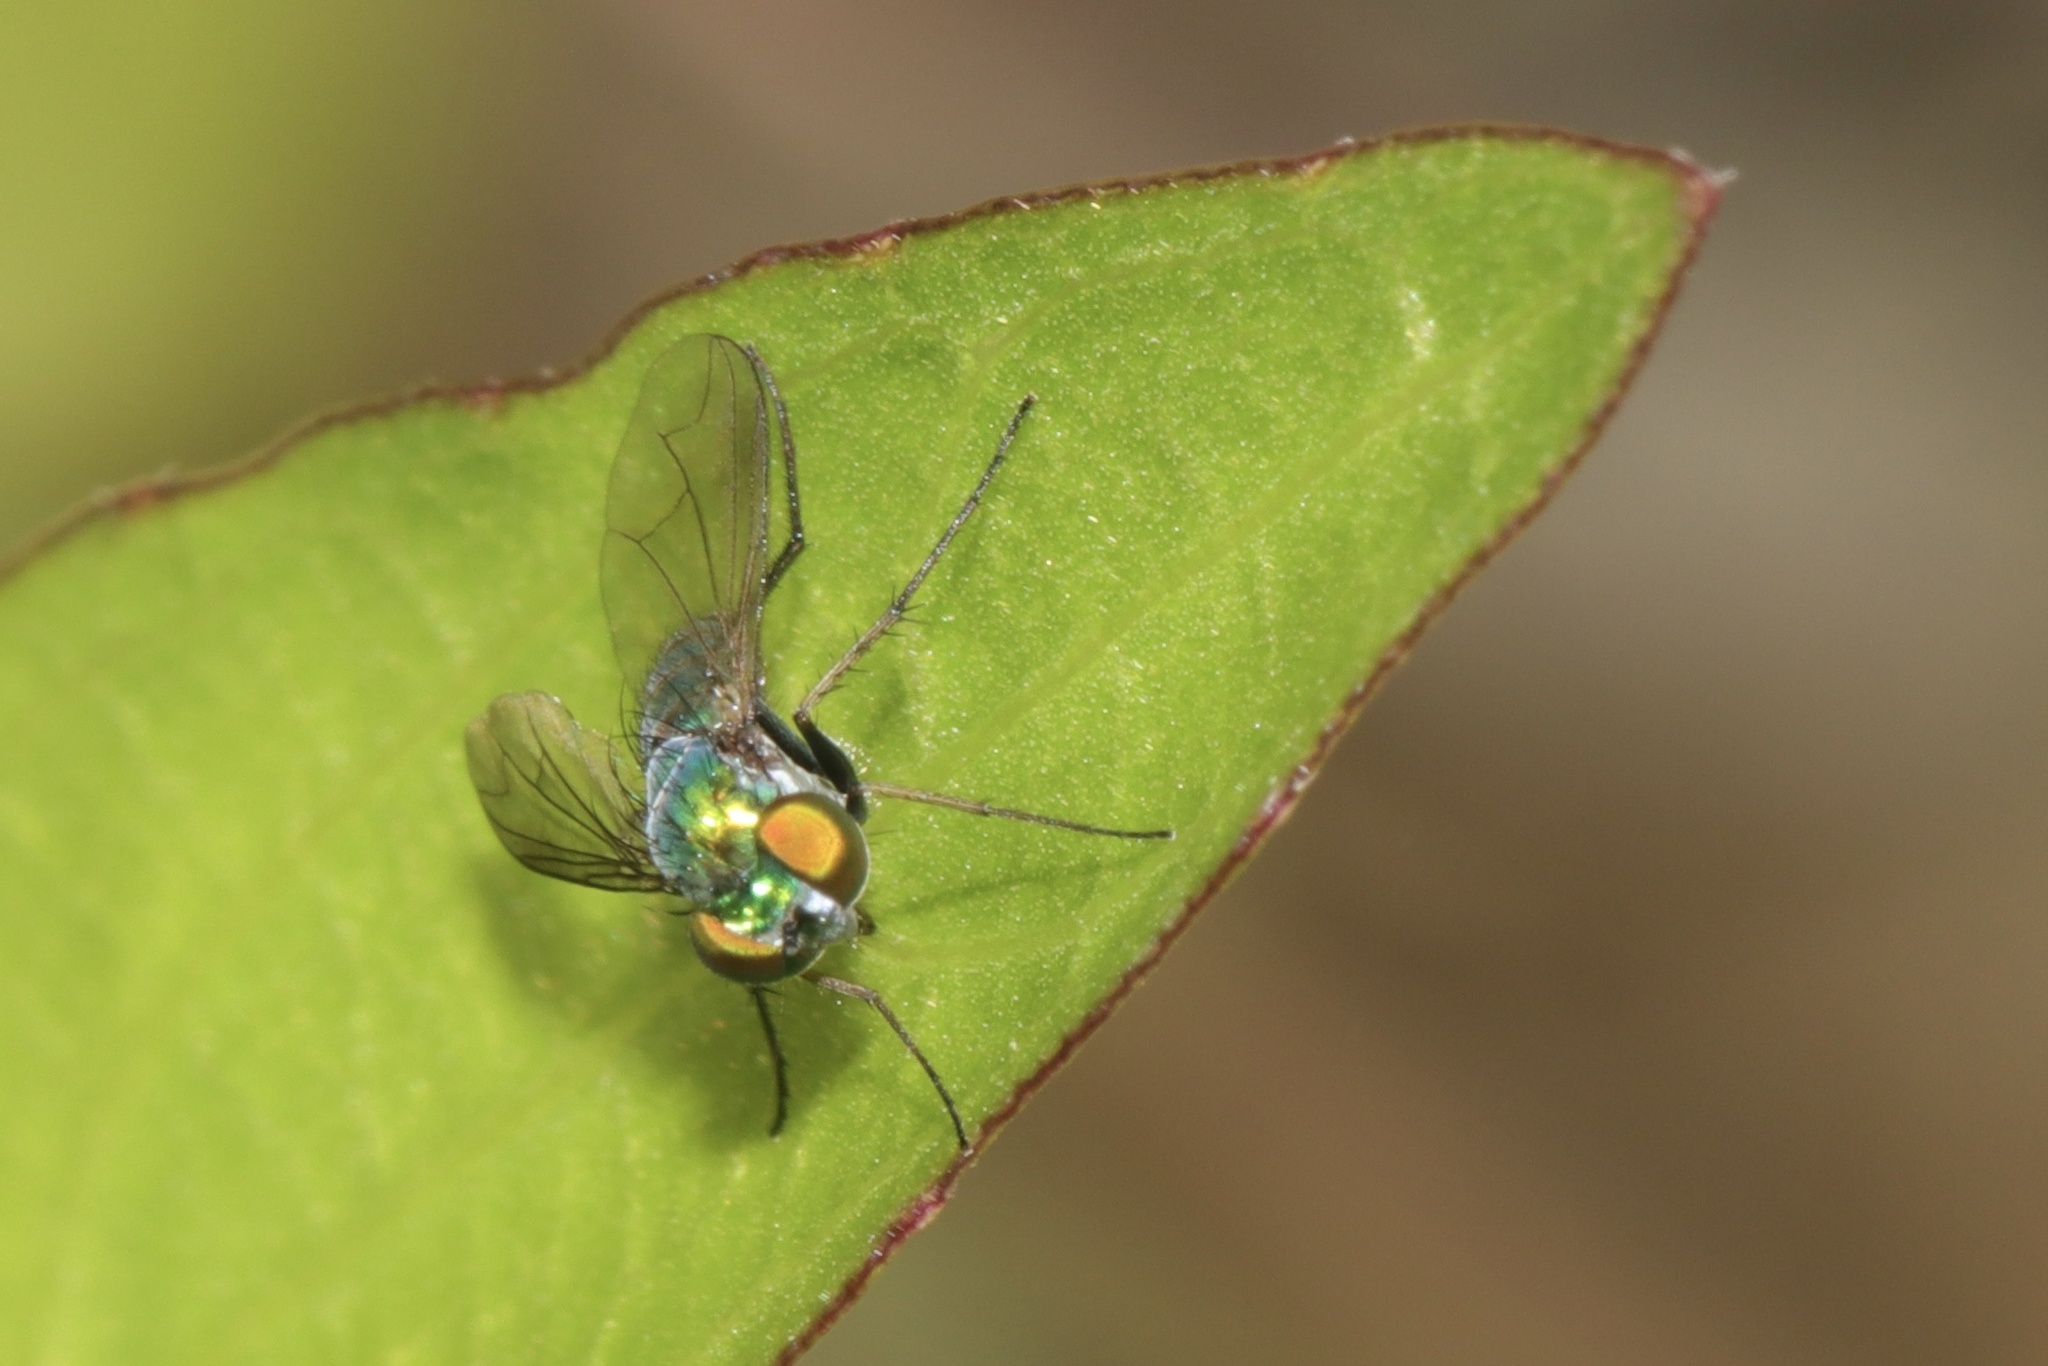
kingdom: Animalia
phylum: Arthropoda
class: Insecta
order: Diptera
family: Dolichopodidae
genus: Condylostylus
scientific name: Condylostylus longicornis
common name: Long-legged fly
